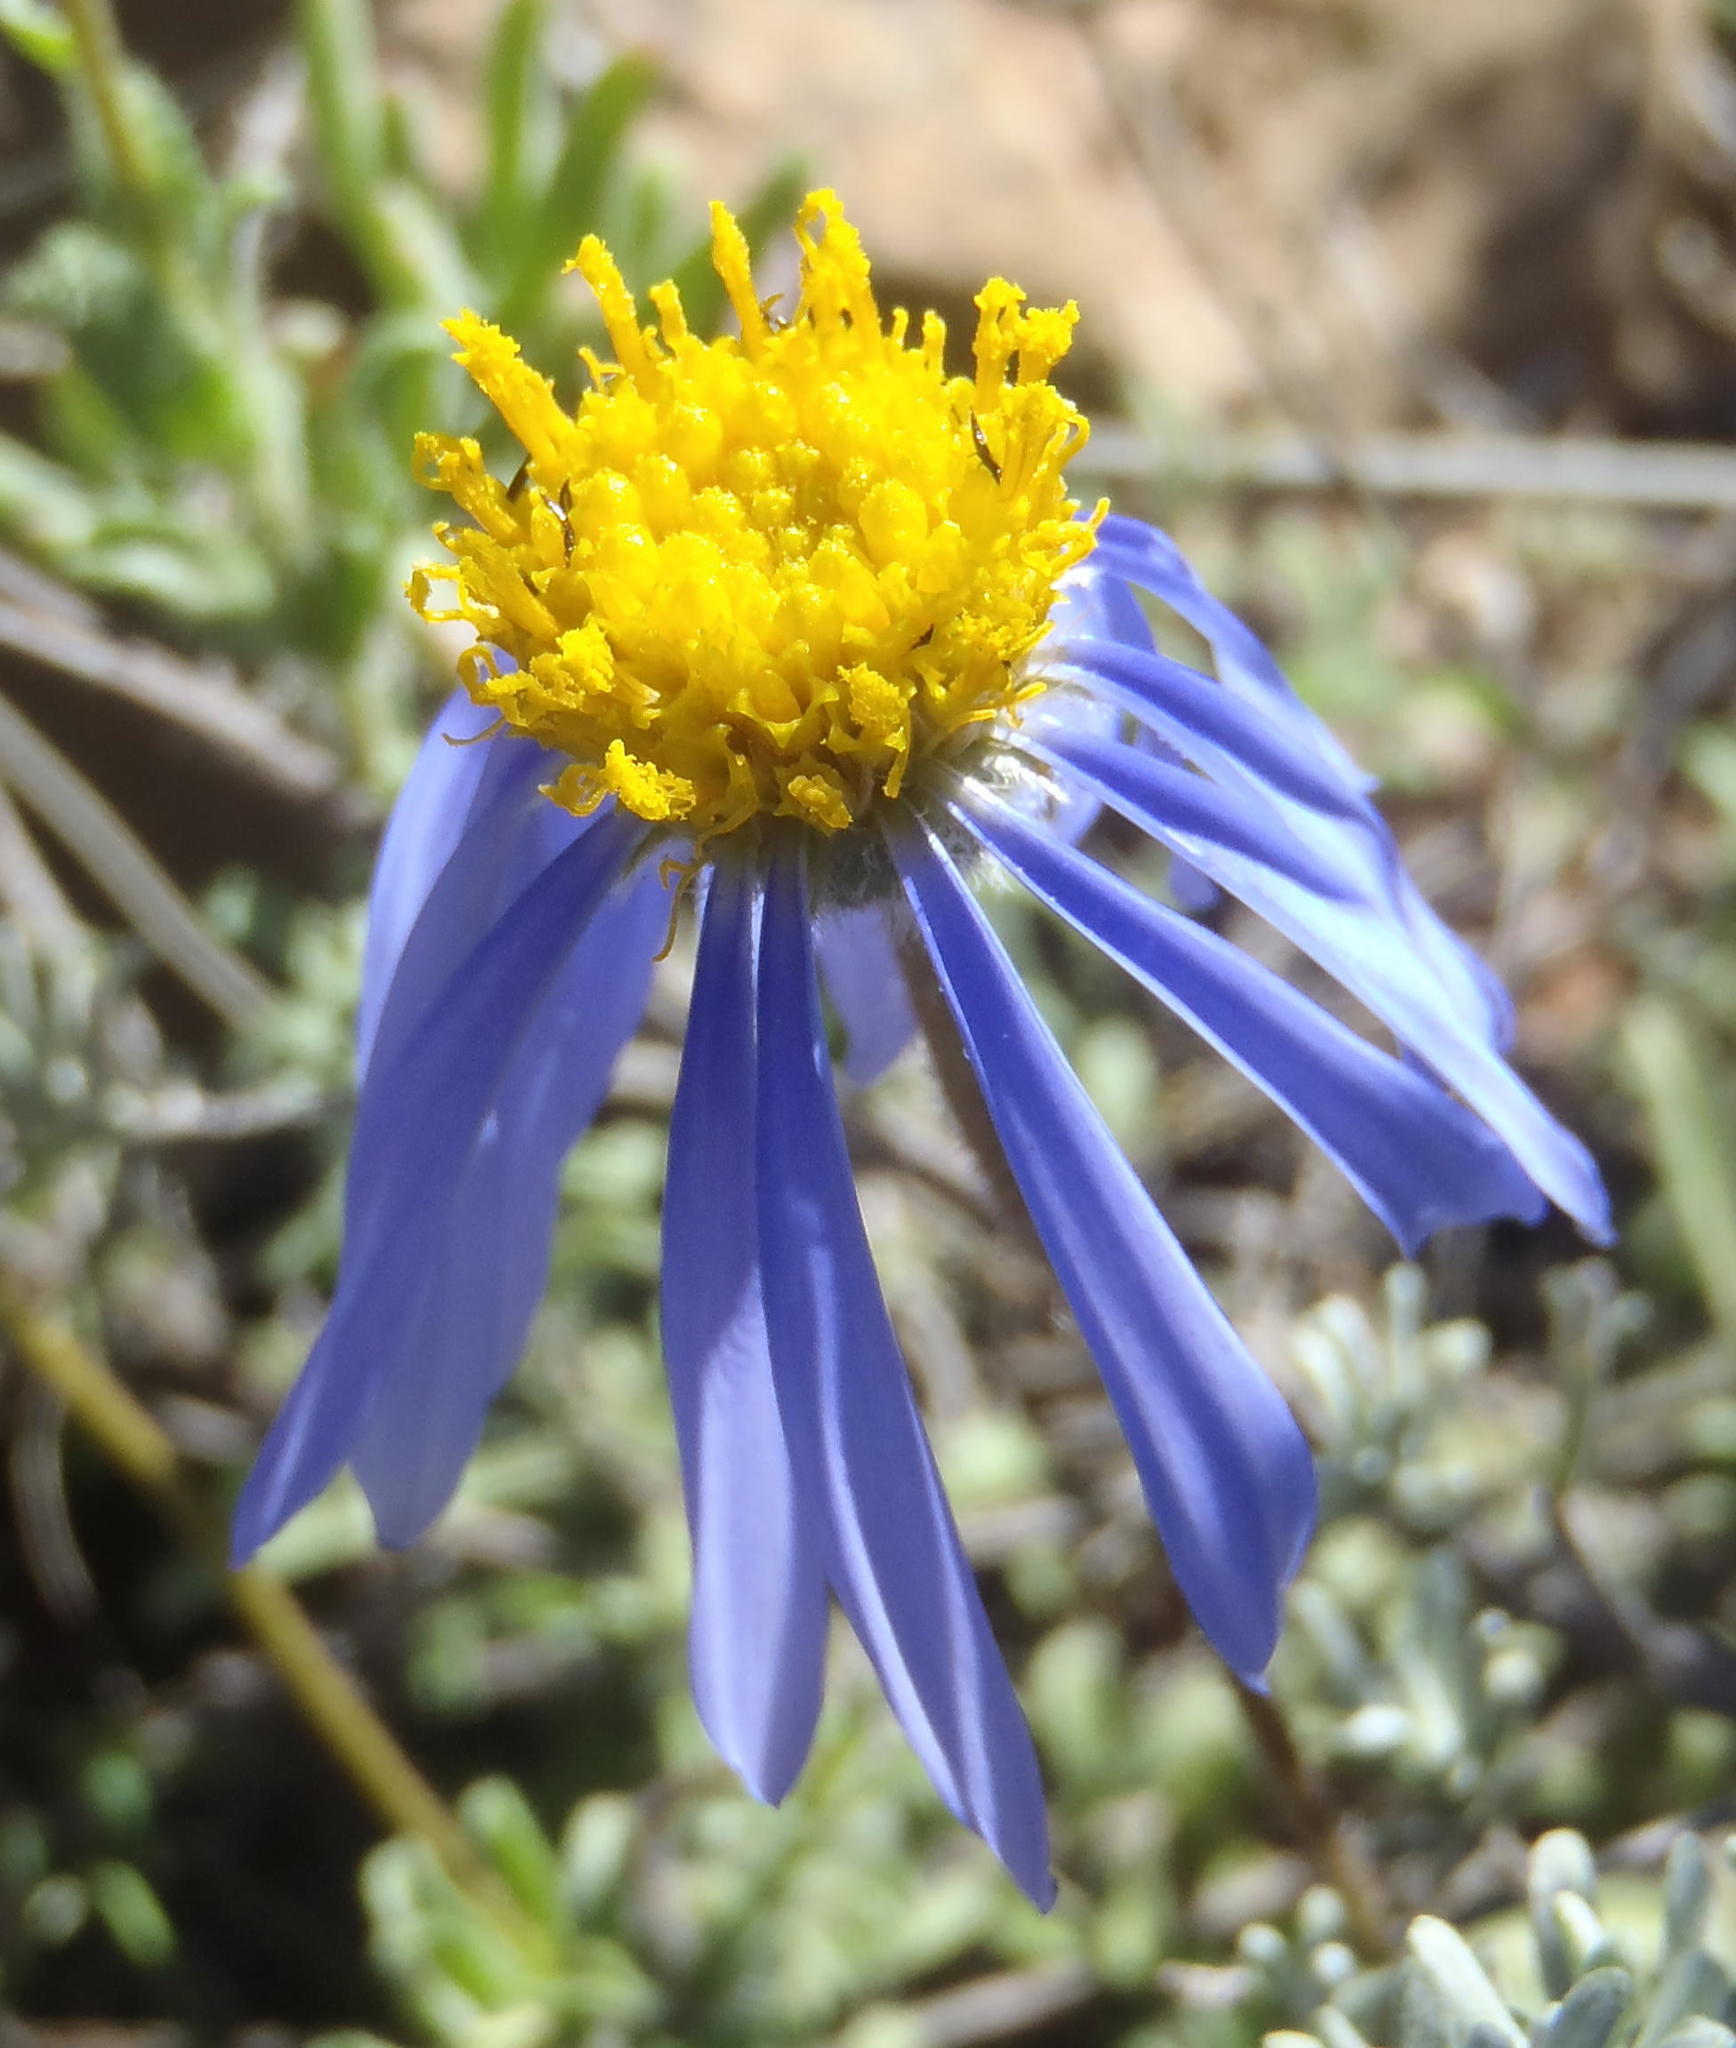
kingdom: Plantae
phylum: Tracheophyta
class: Magnoliopsida
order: Asterales
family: Asteraceae
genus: Felicia
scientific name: Felicia ovata
